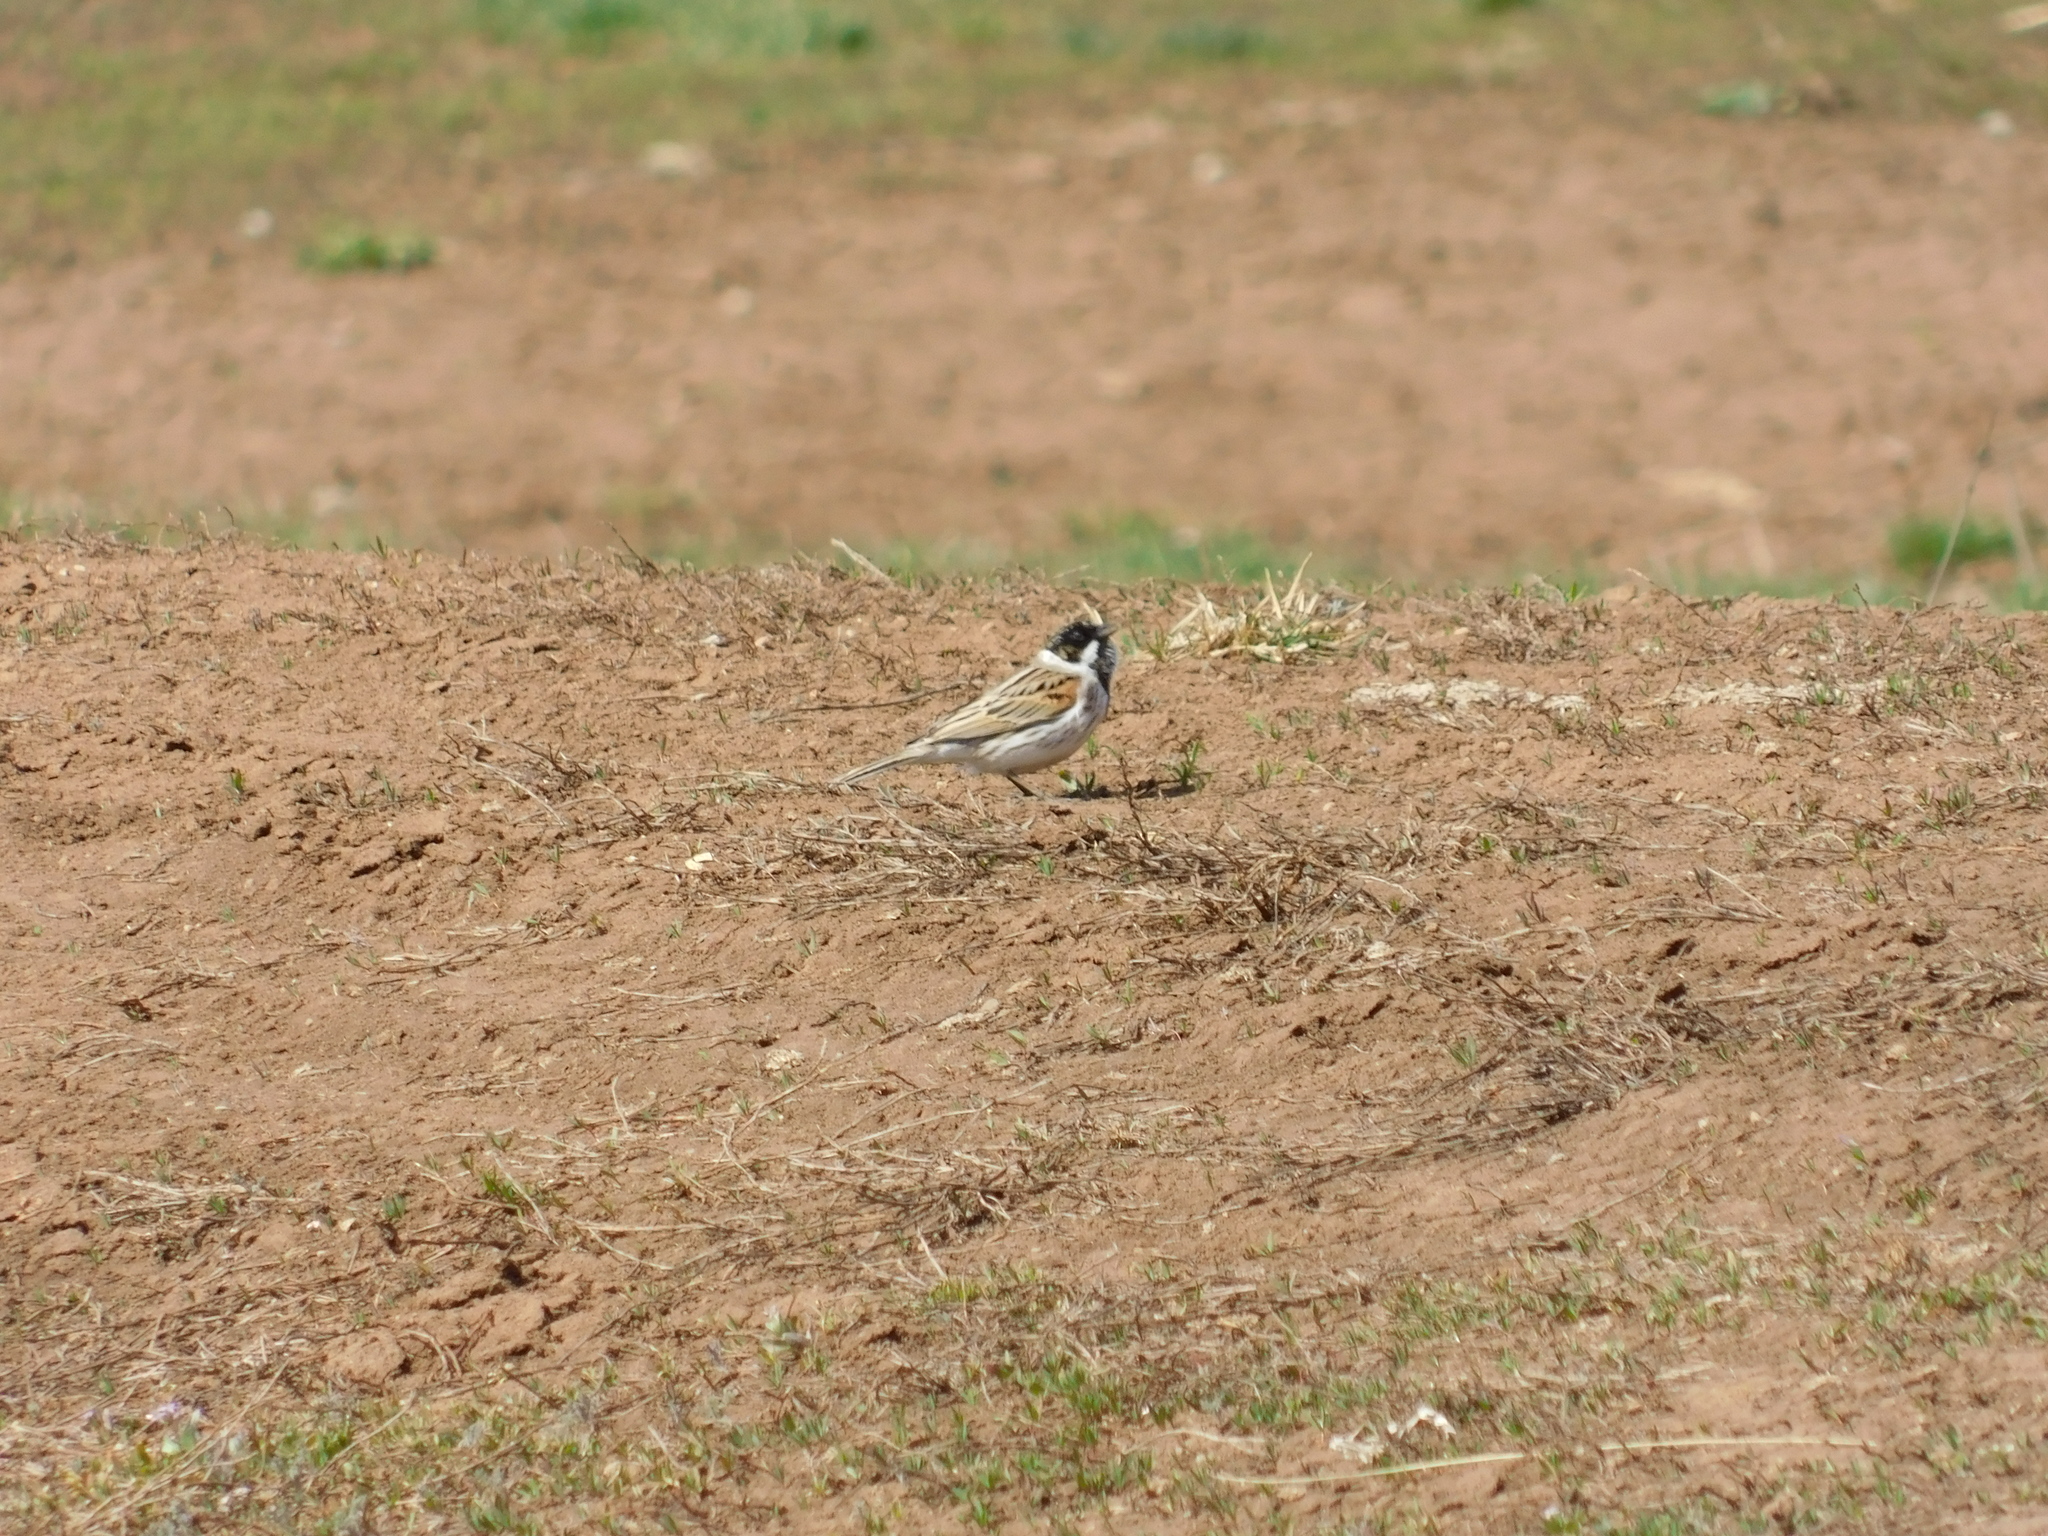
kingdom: Animalia
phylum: Chordata
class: Aves
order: Passeriformes
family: Emberizidae
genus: Emberiza
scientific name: Emberiza schoeniclus
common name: Reed bunting
